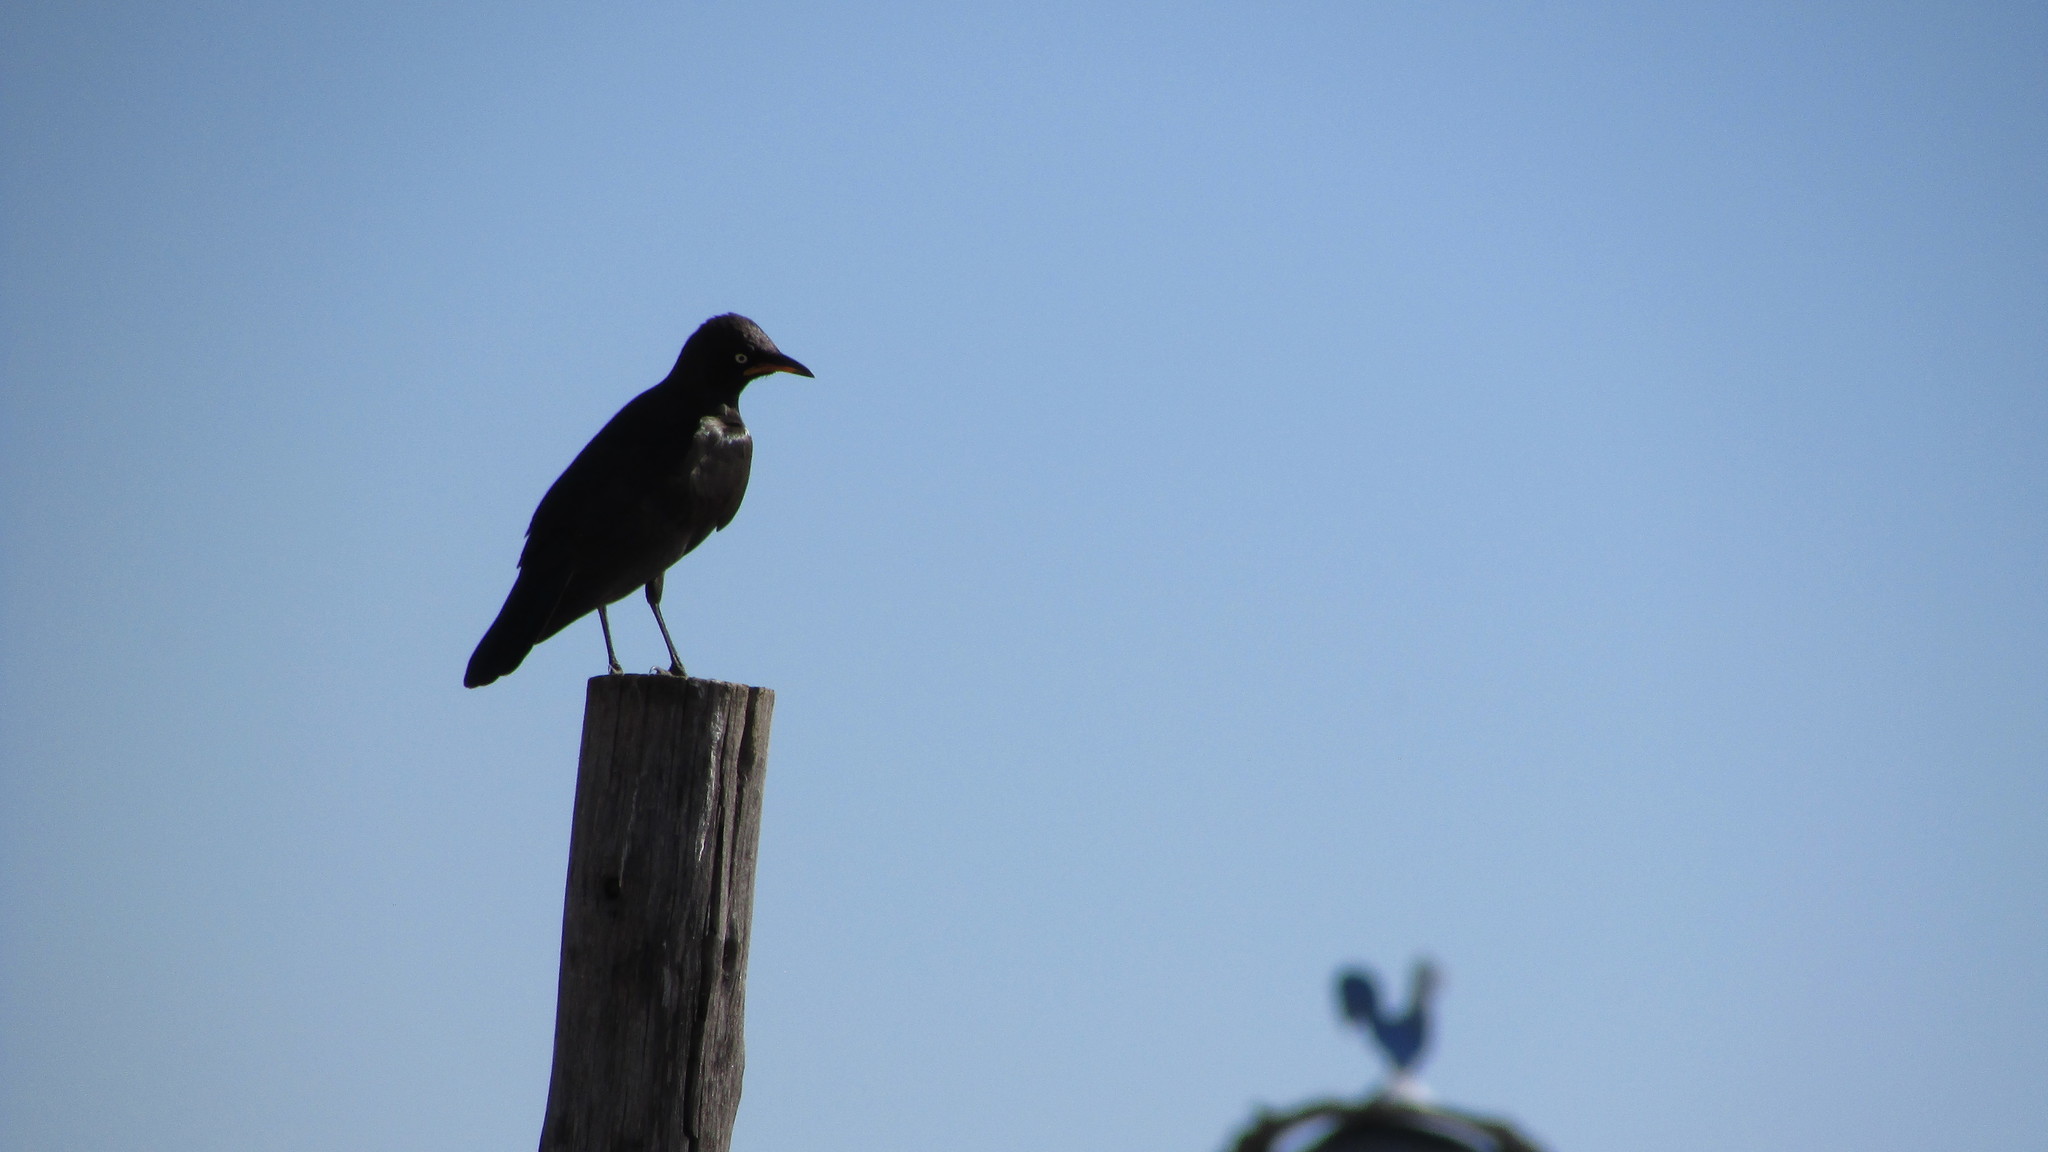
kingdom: Animalia
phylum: Chordata
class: Aves
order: Passeriformes
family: Sturnidae
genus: Lamprotornis
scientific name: Lamprotornis bicolor
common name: Pied starling
